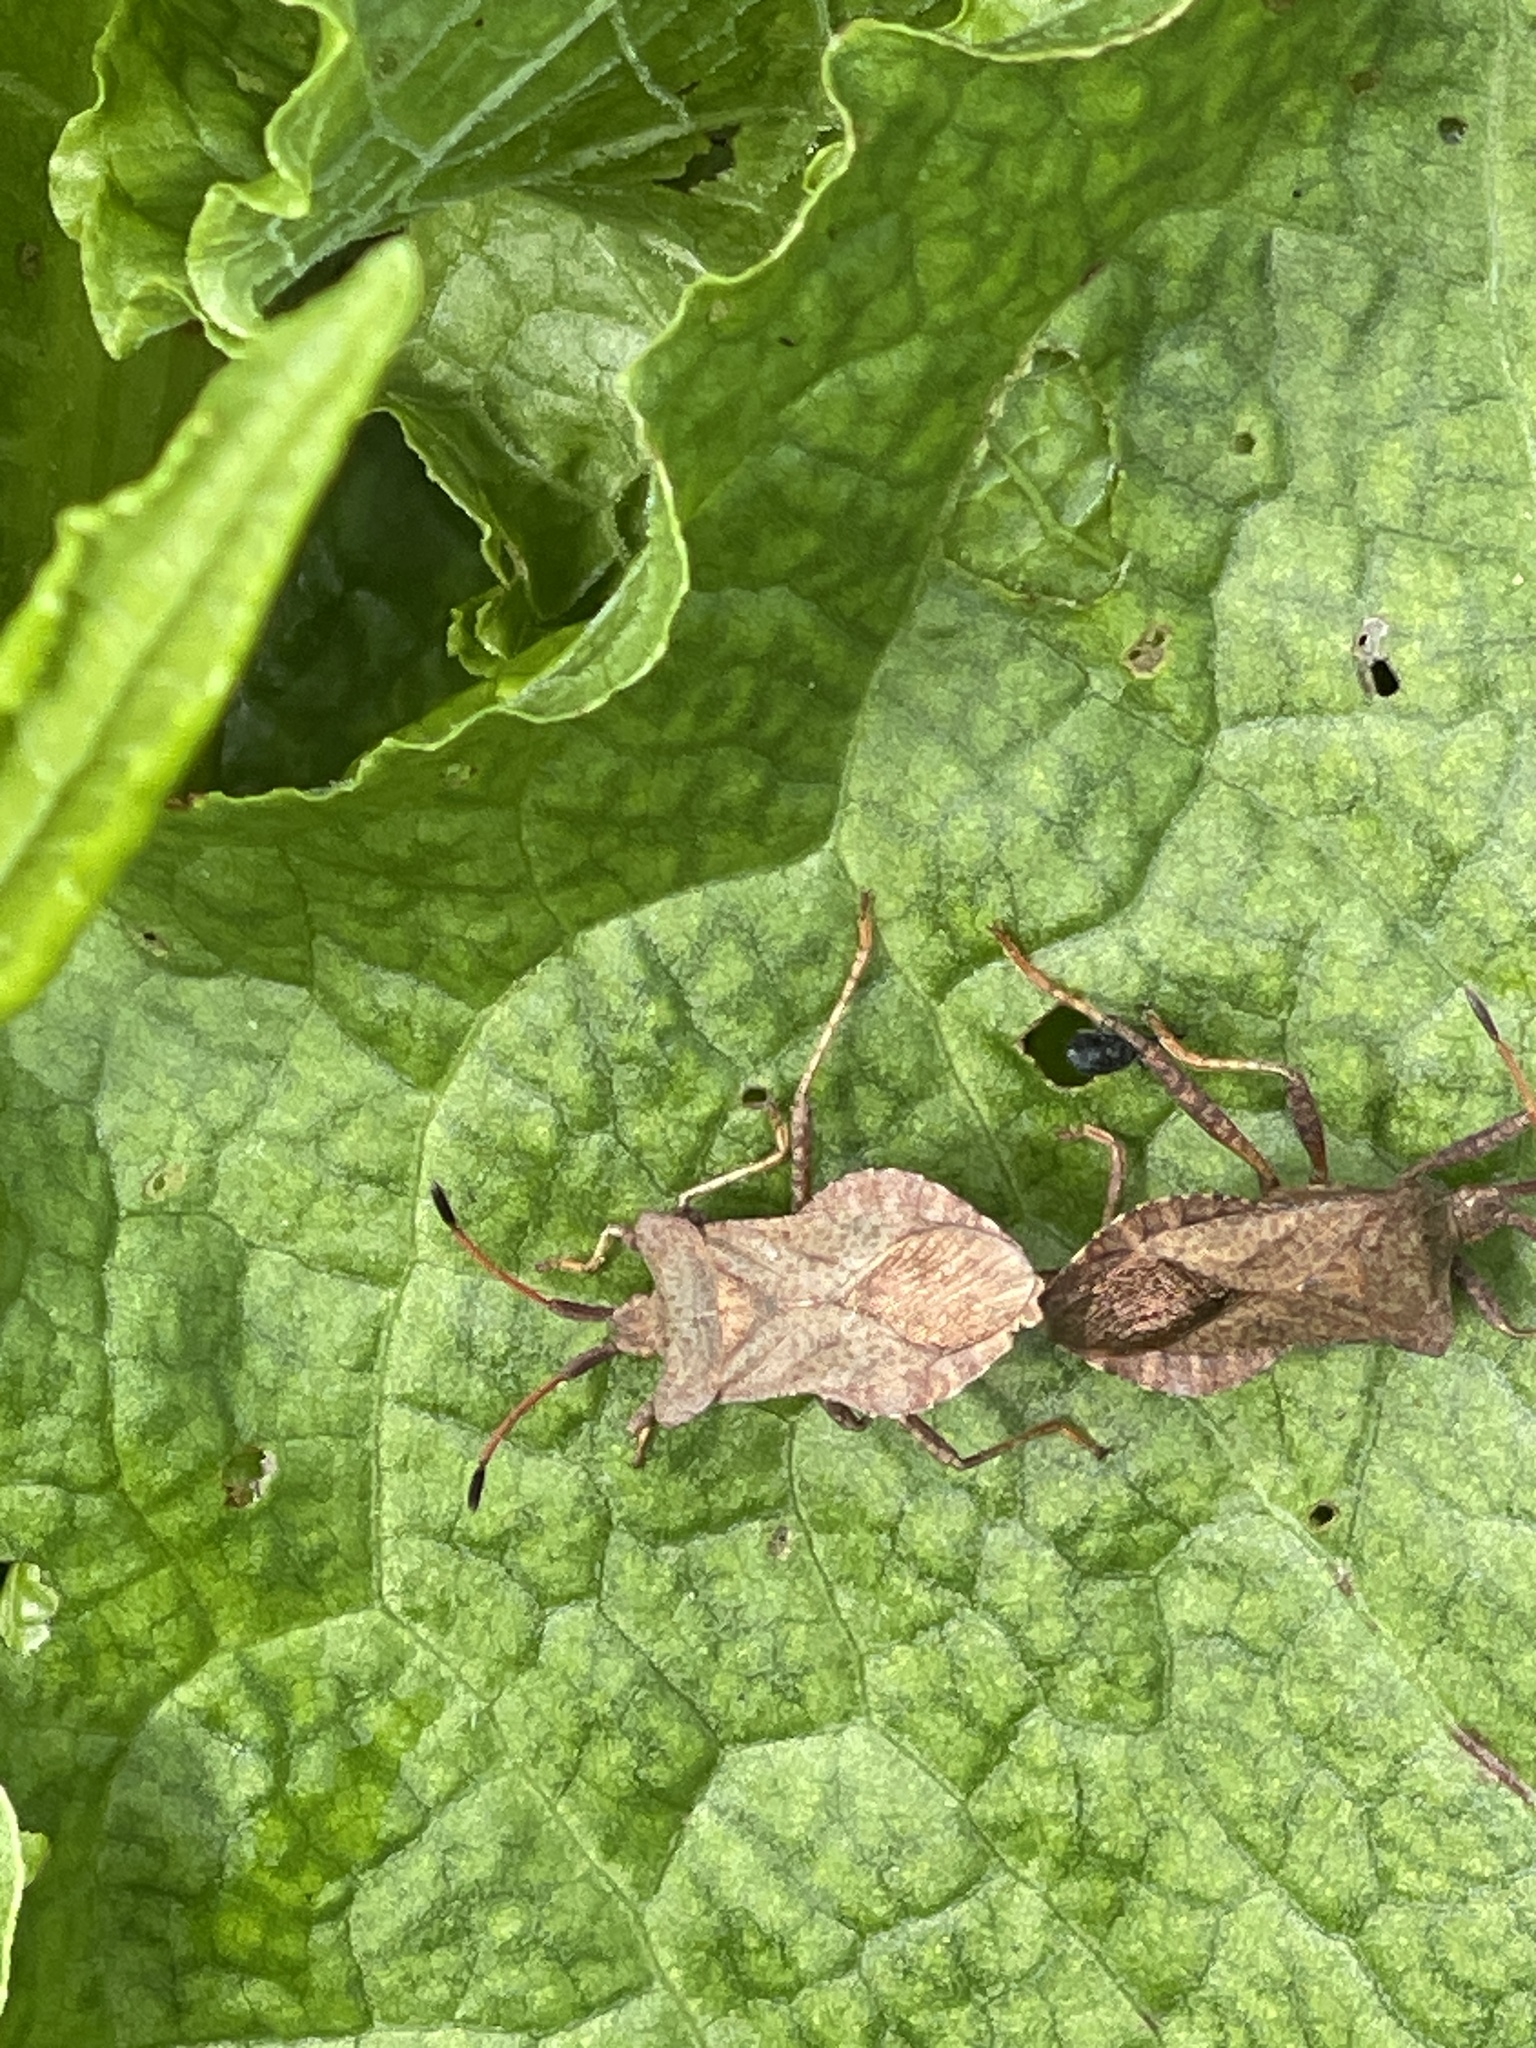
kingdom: Animalia
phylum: Arthropoda
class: Insecta
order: Hemiptera
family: Coreidae
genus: Coreus
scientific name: Coreus marginatus
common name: Dock bug
